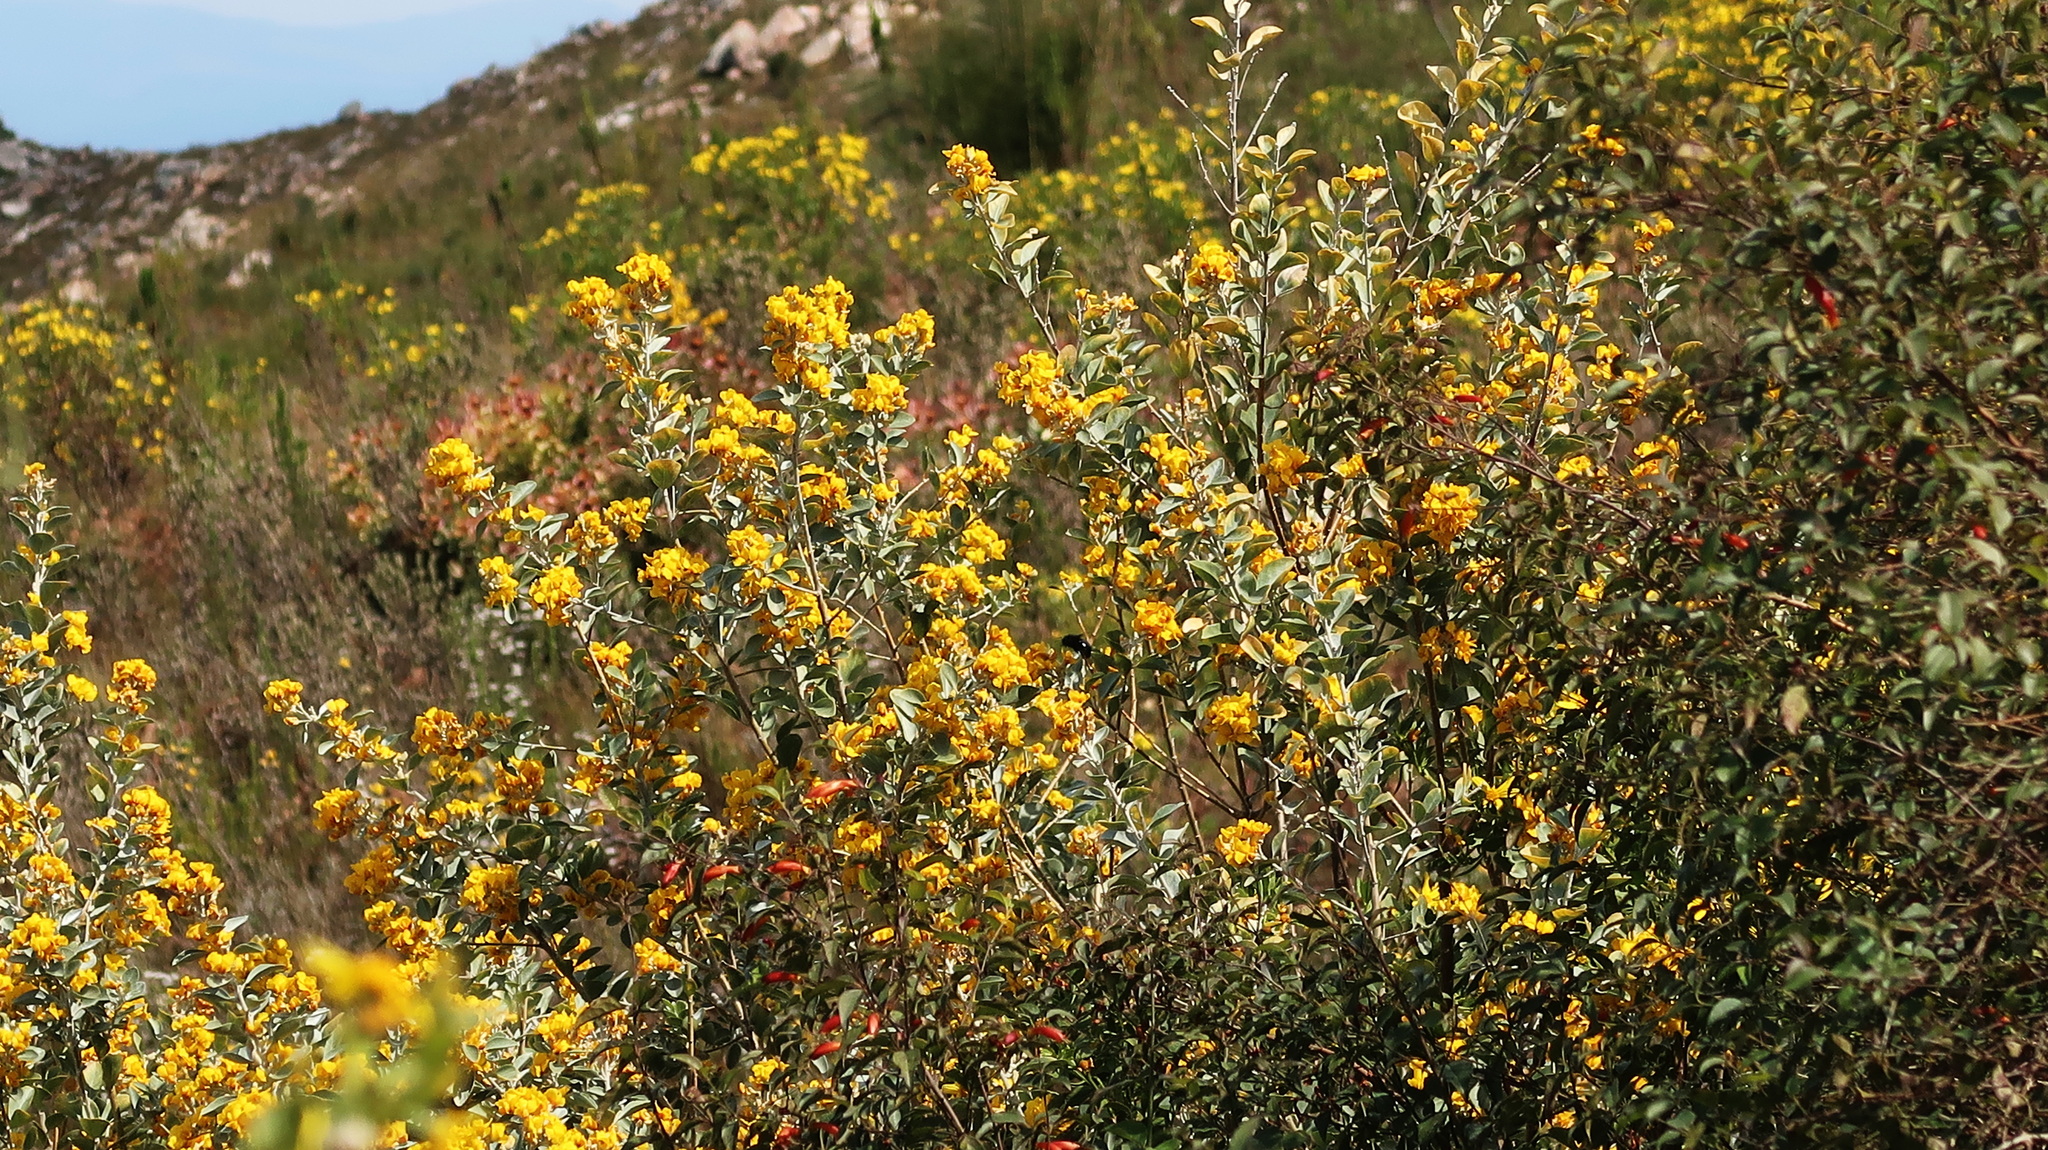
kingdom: Plantae
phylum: Tracheophyta
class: Magnoliopsida
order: Fabales
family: Fabaceae
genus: Stirtonanthus
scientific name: Stirtonanthus taylorianus
